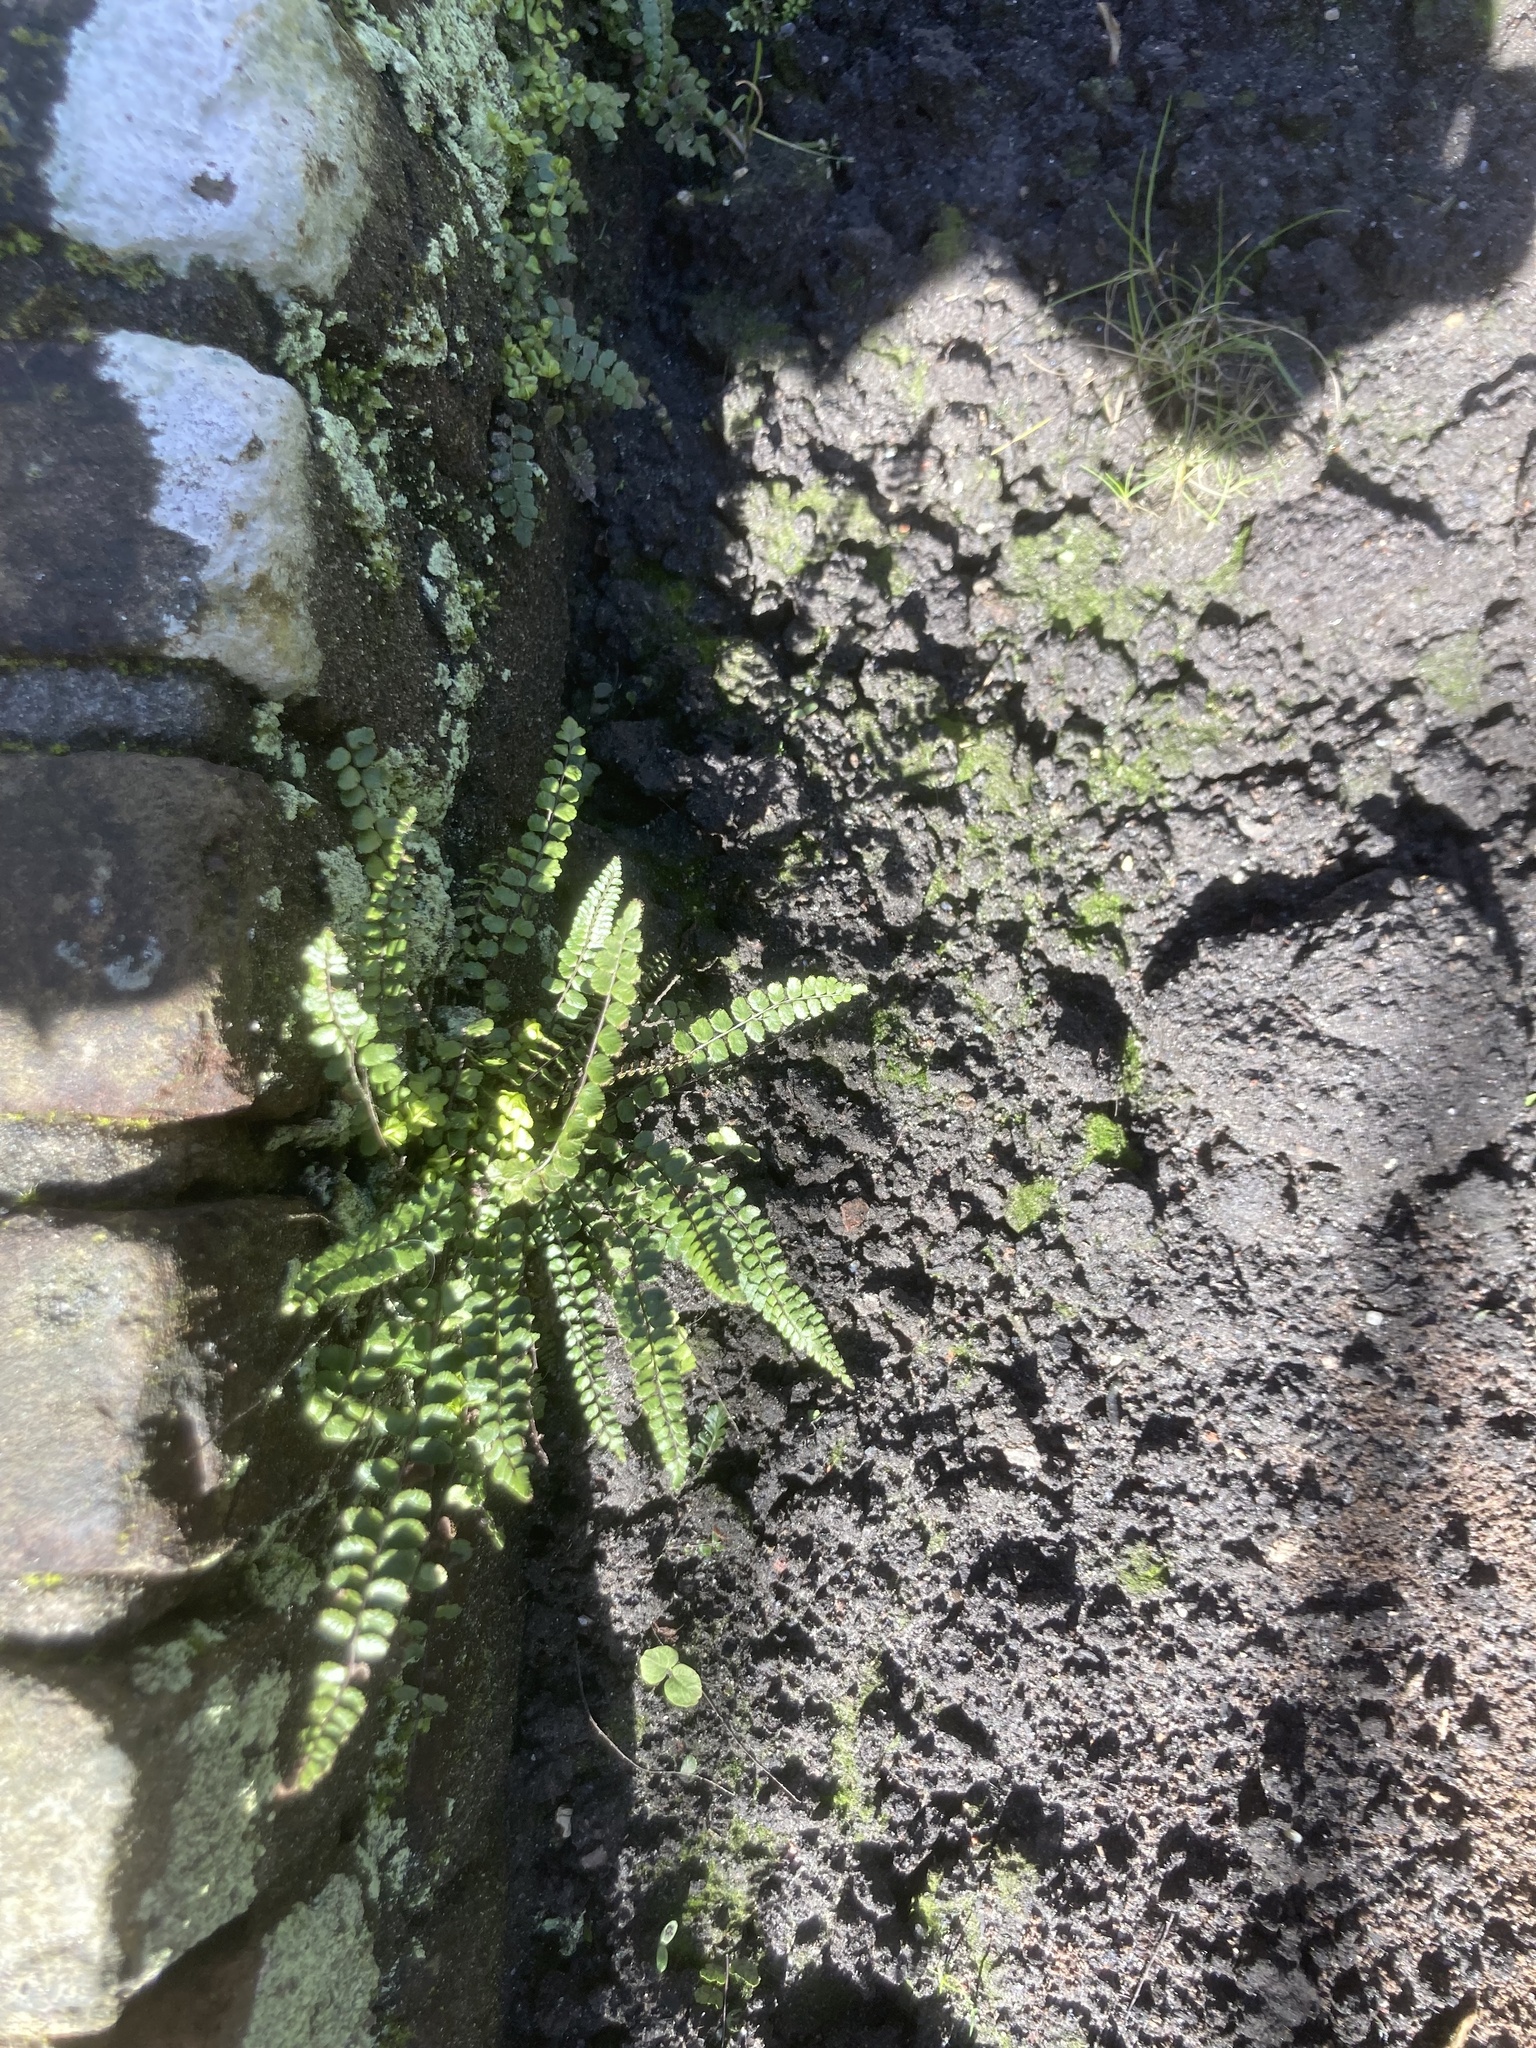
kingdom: Plantae
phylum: Tracheophyta
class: Polypodiopsida
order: Polypodiales
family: Aspleniaceae
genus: Asplenium
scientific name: Asplenium trichomanes
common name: Maidenhair spleenwort
